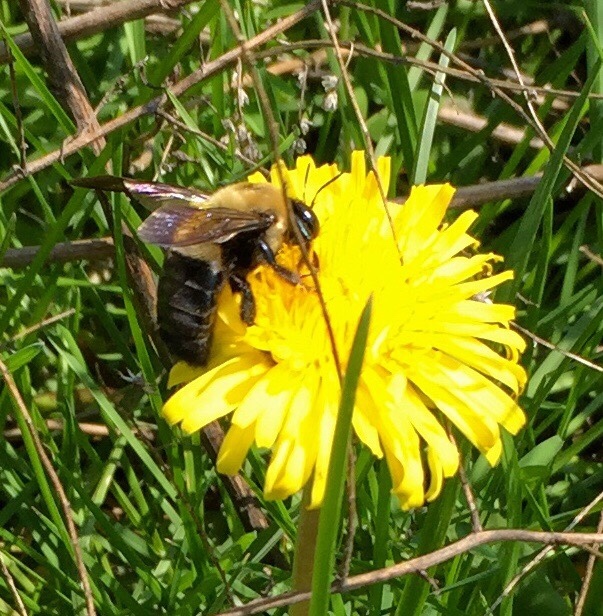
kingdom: Animalia
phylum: Arthropoda
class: Insecta
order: Hymenoptera
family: Apidae
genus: Xylocopa
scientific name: Xylocopa virginica
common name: Carpenter bee
